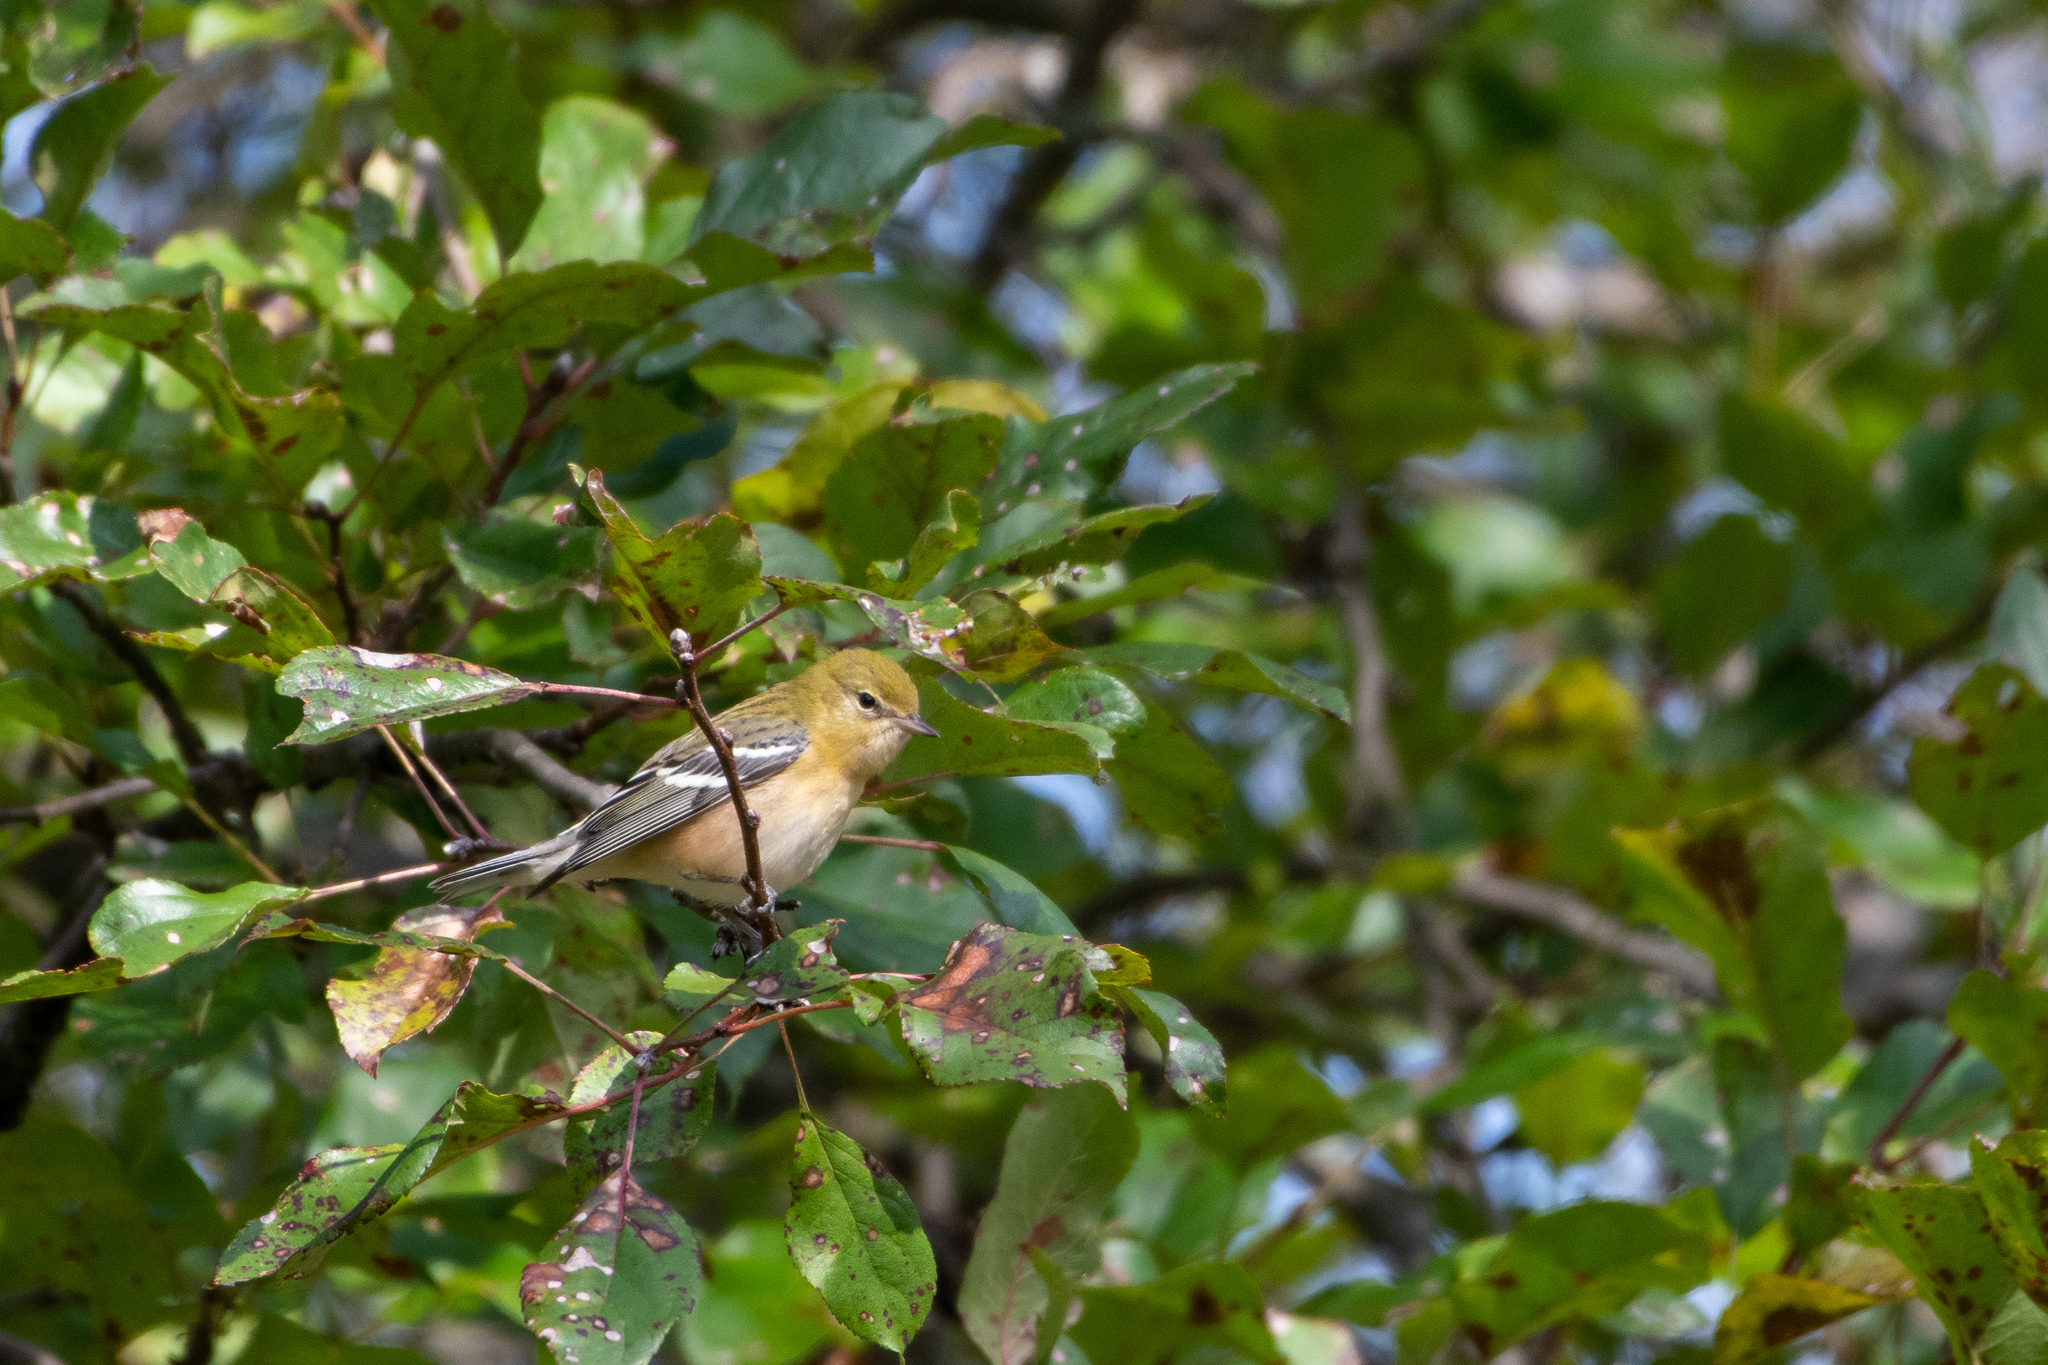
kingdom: Animalia
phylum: Chordata
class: Aves
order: Passeriformes
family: Parulidae
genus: Setophaga
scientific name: Setophaga castanea
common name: Bay-breasted warbler
